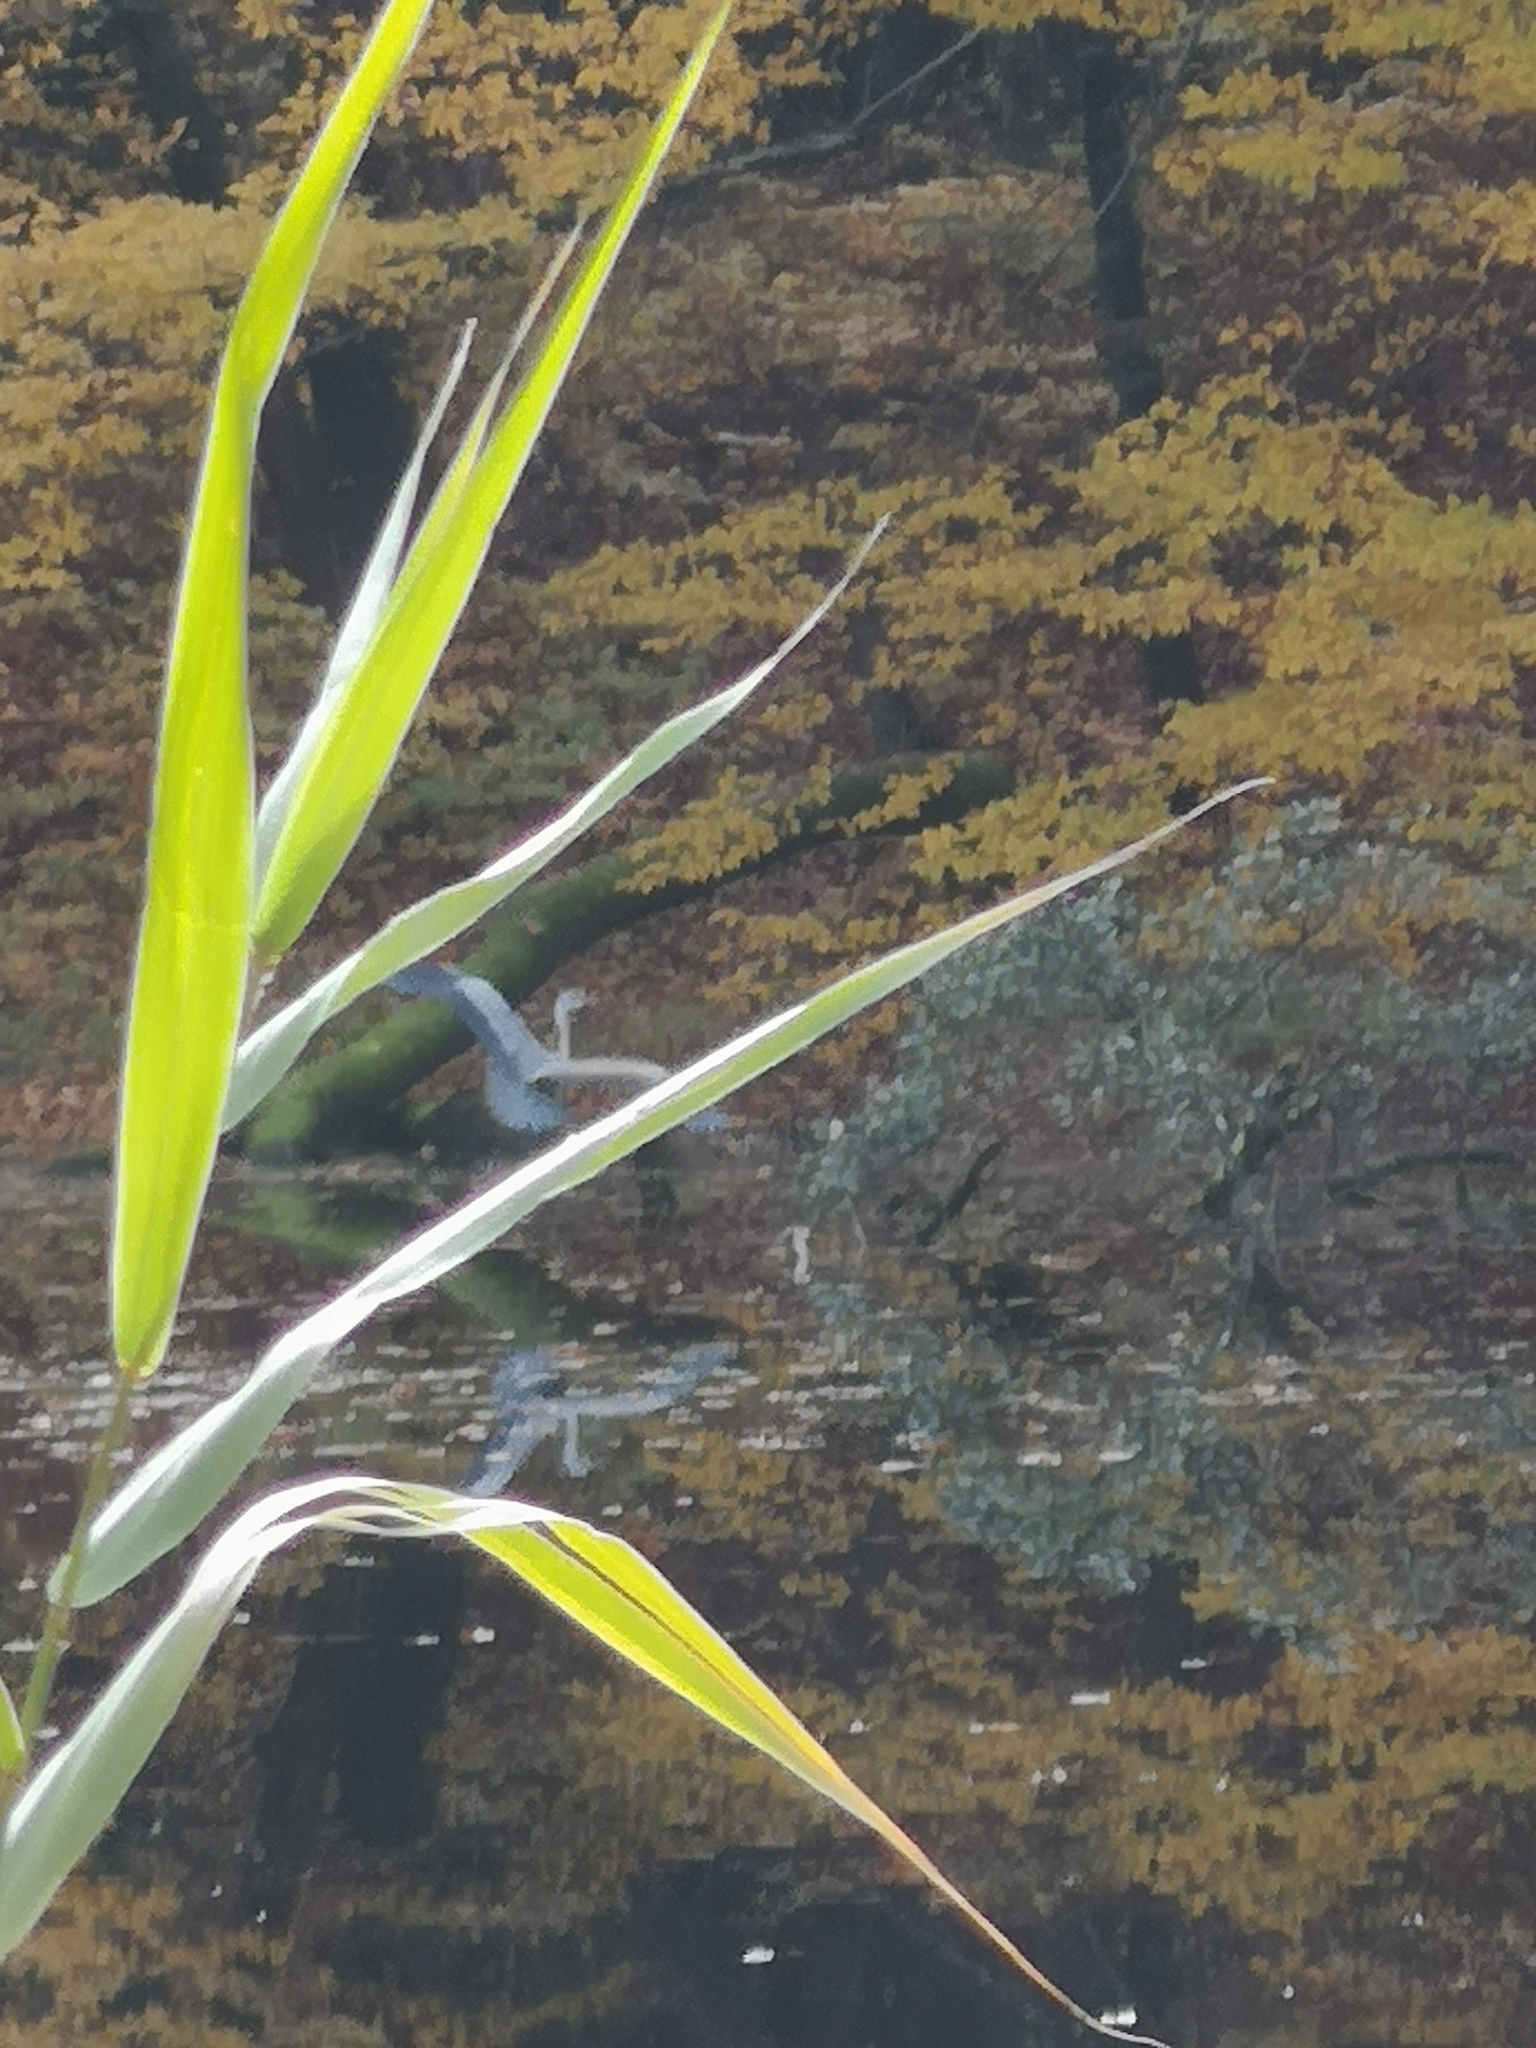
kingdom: Animalia
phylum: Chordata
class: Aves
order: Pelecaniformes
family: Ardeidae
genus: Ardea
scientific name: Ardea cinerea
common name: Grey heron
